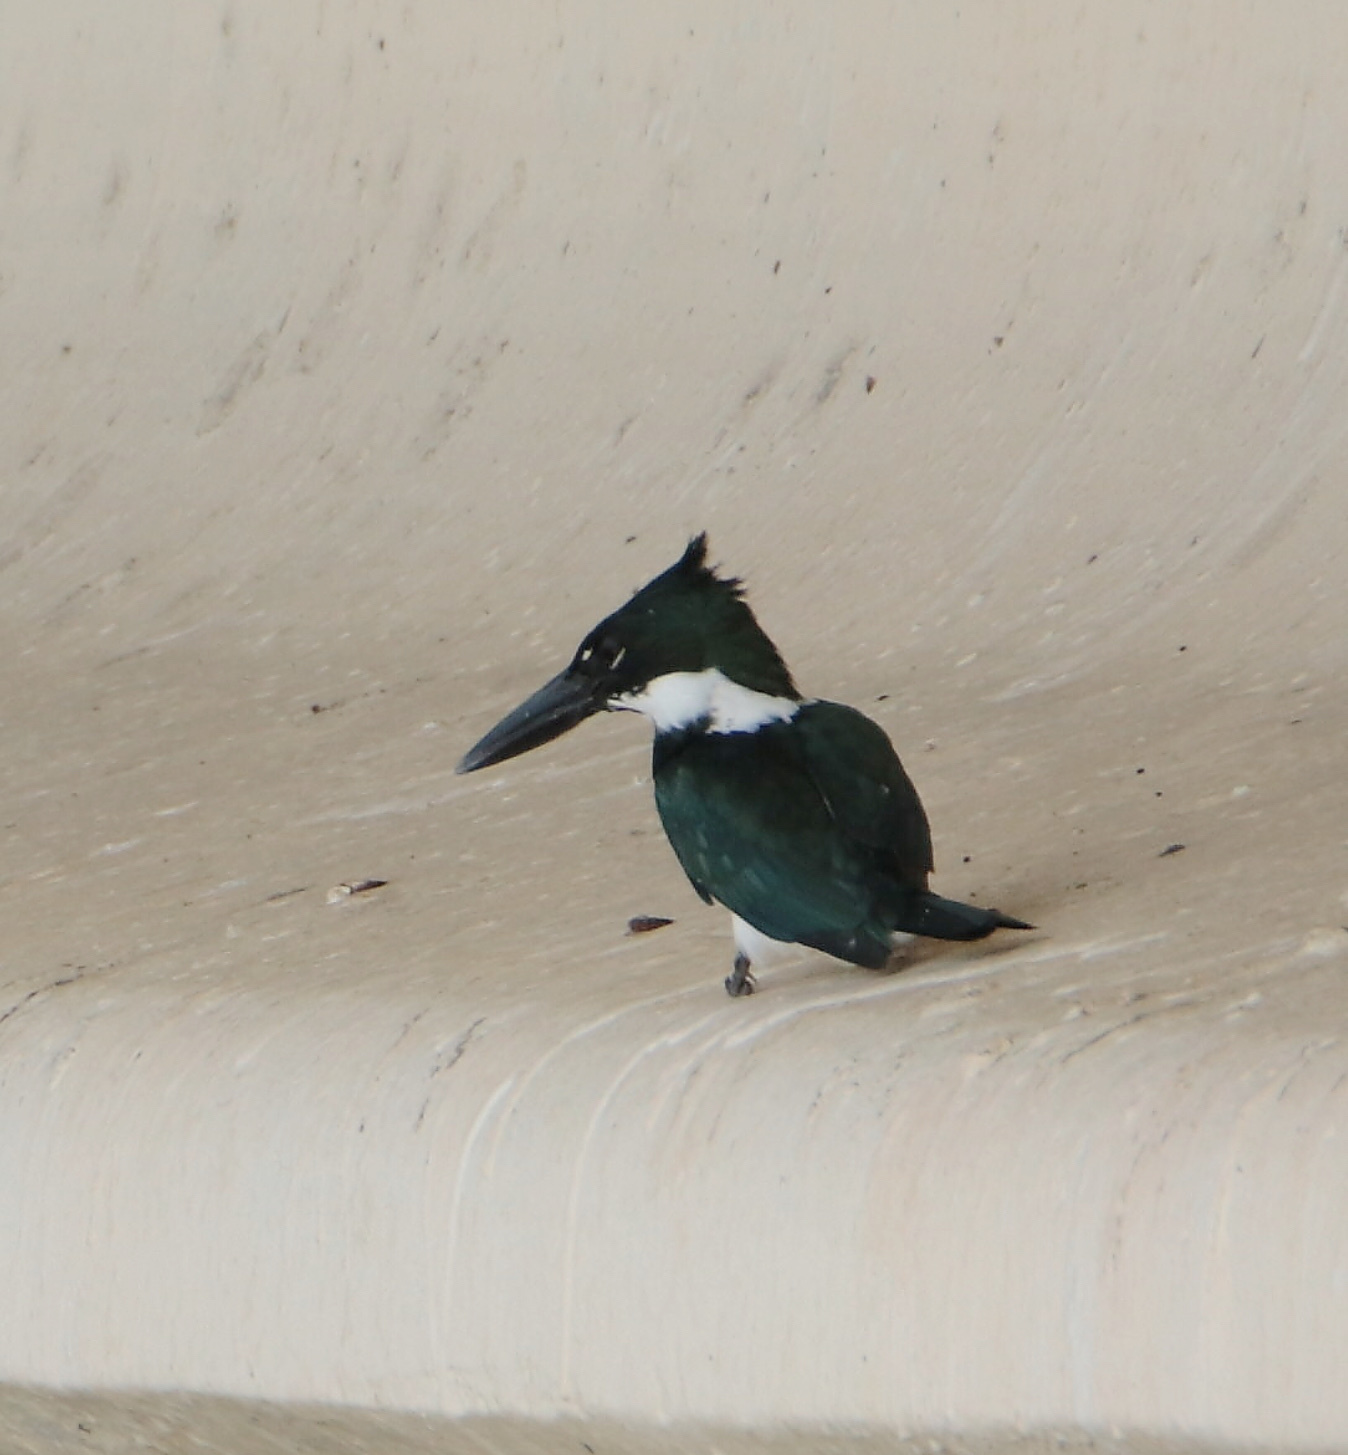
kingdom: Animalia
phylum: Chordata
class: Aves
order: Coraciiformes
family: Alcedinidae
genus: Chloroceryle
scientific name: Chloroceryle amazona
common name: Amazon kingfisher
